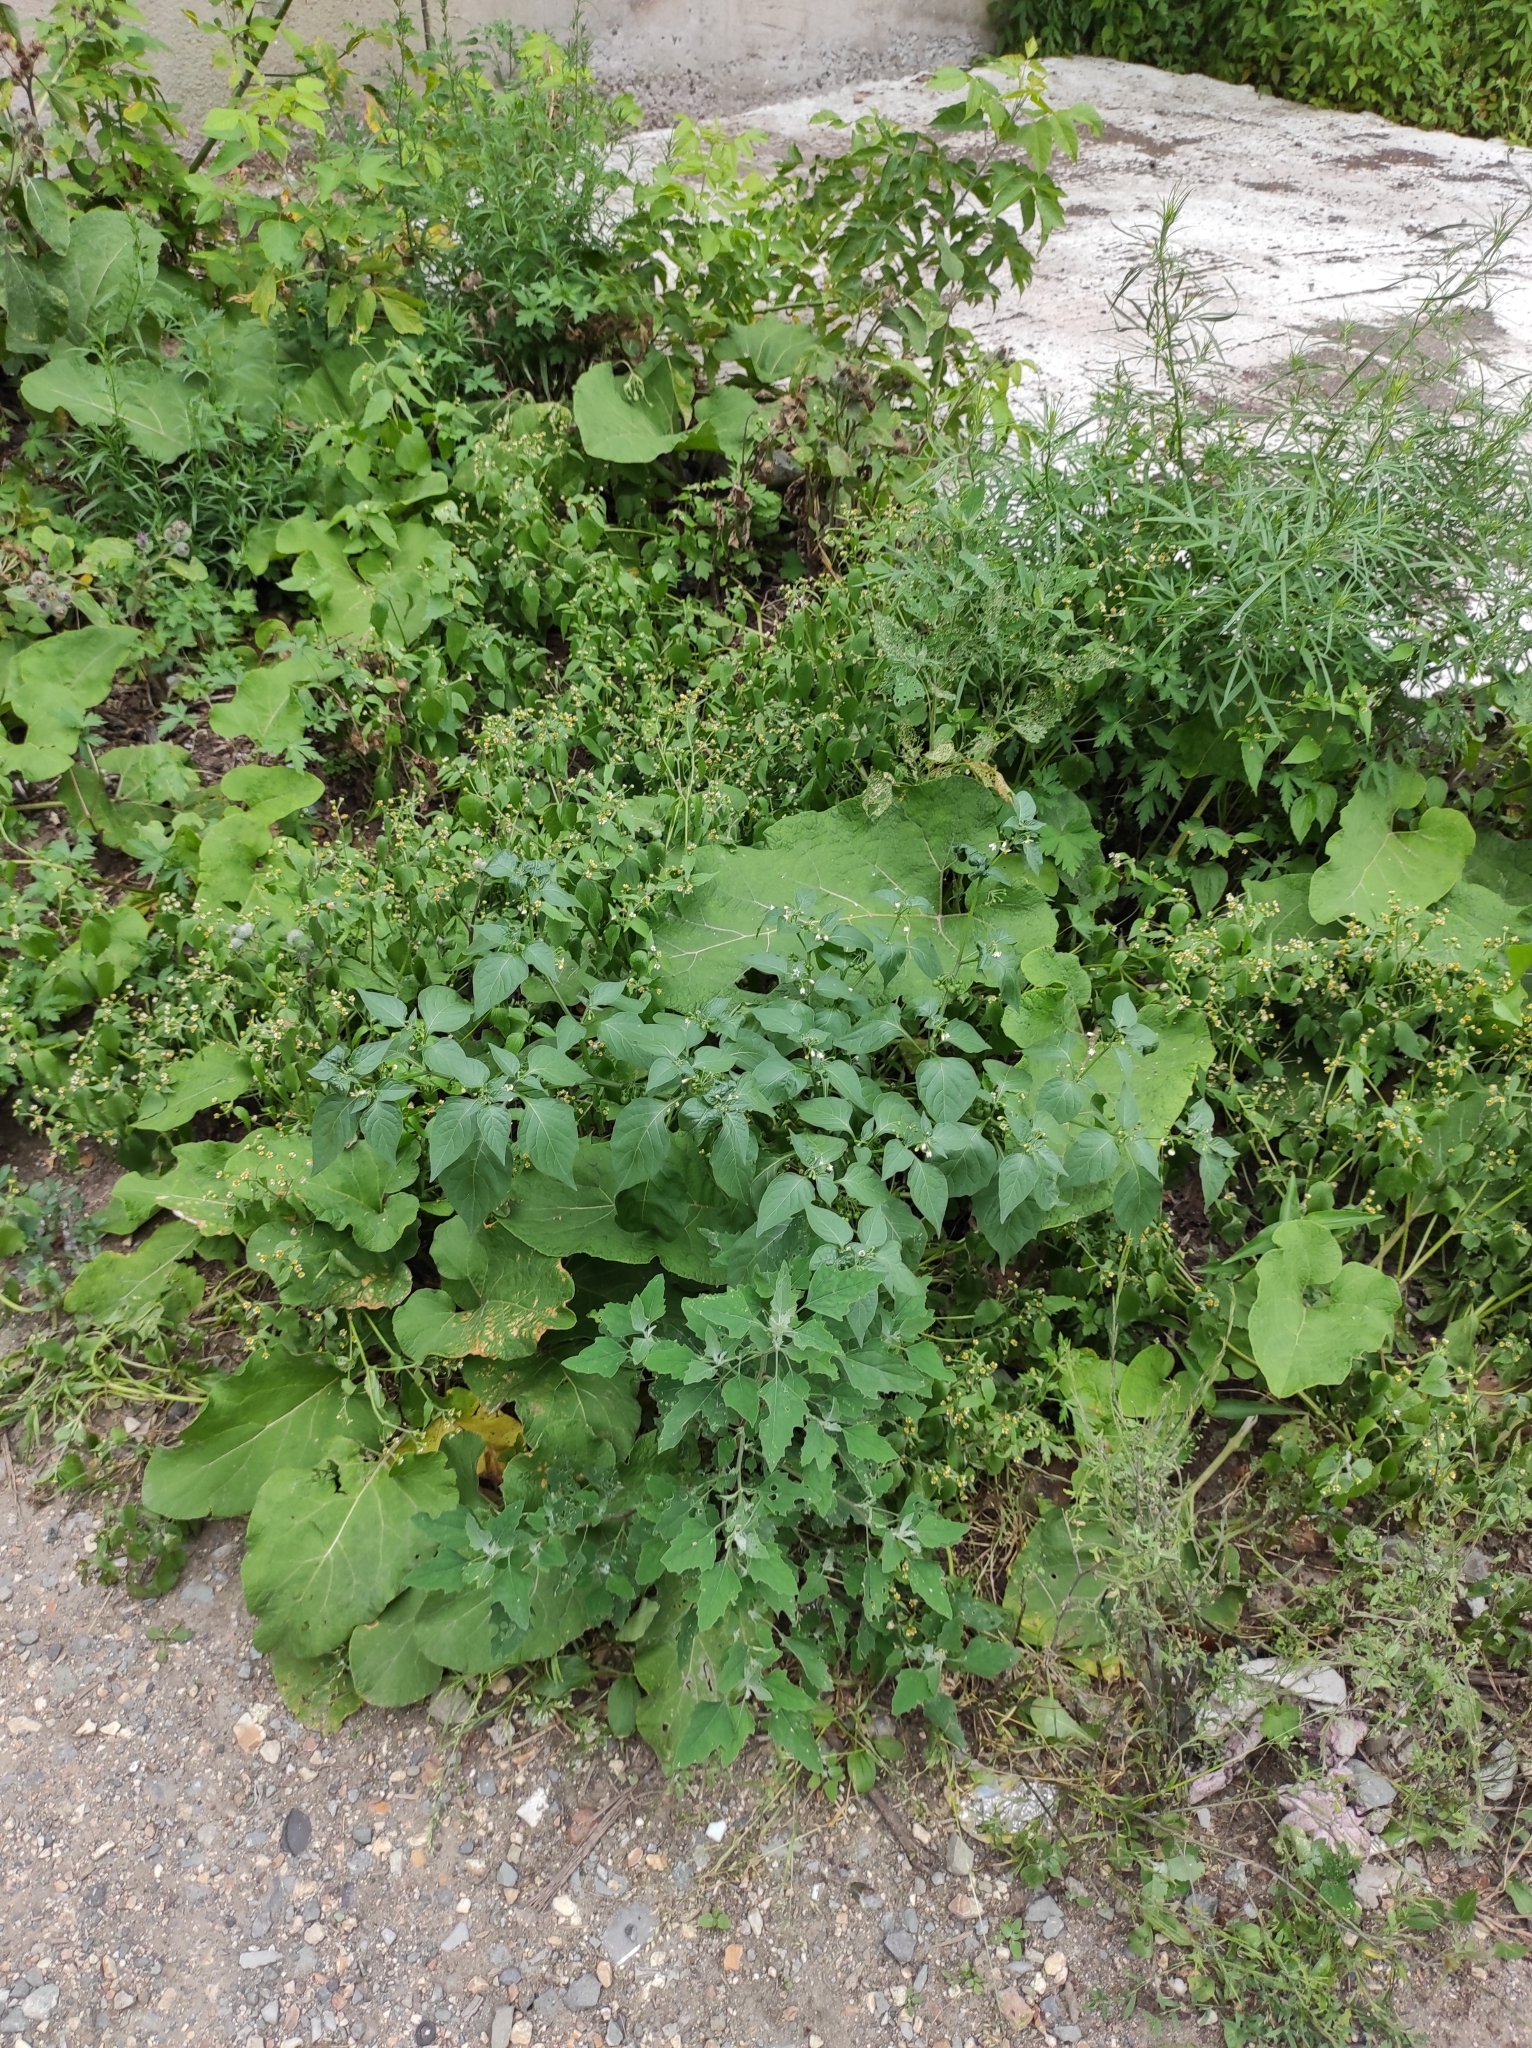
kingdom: Plantae
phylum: Tracheophyta
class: Magnoliopsida
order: Solanales
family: Solanaceae
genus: Solanum
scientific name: Solanum nigrum
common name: Black nightshade
